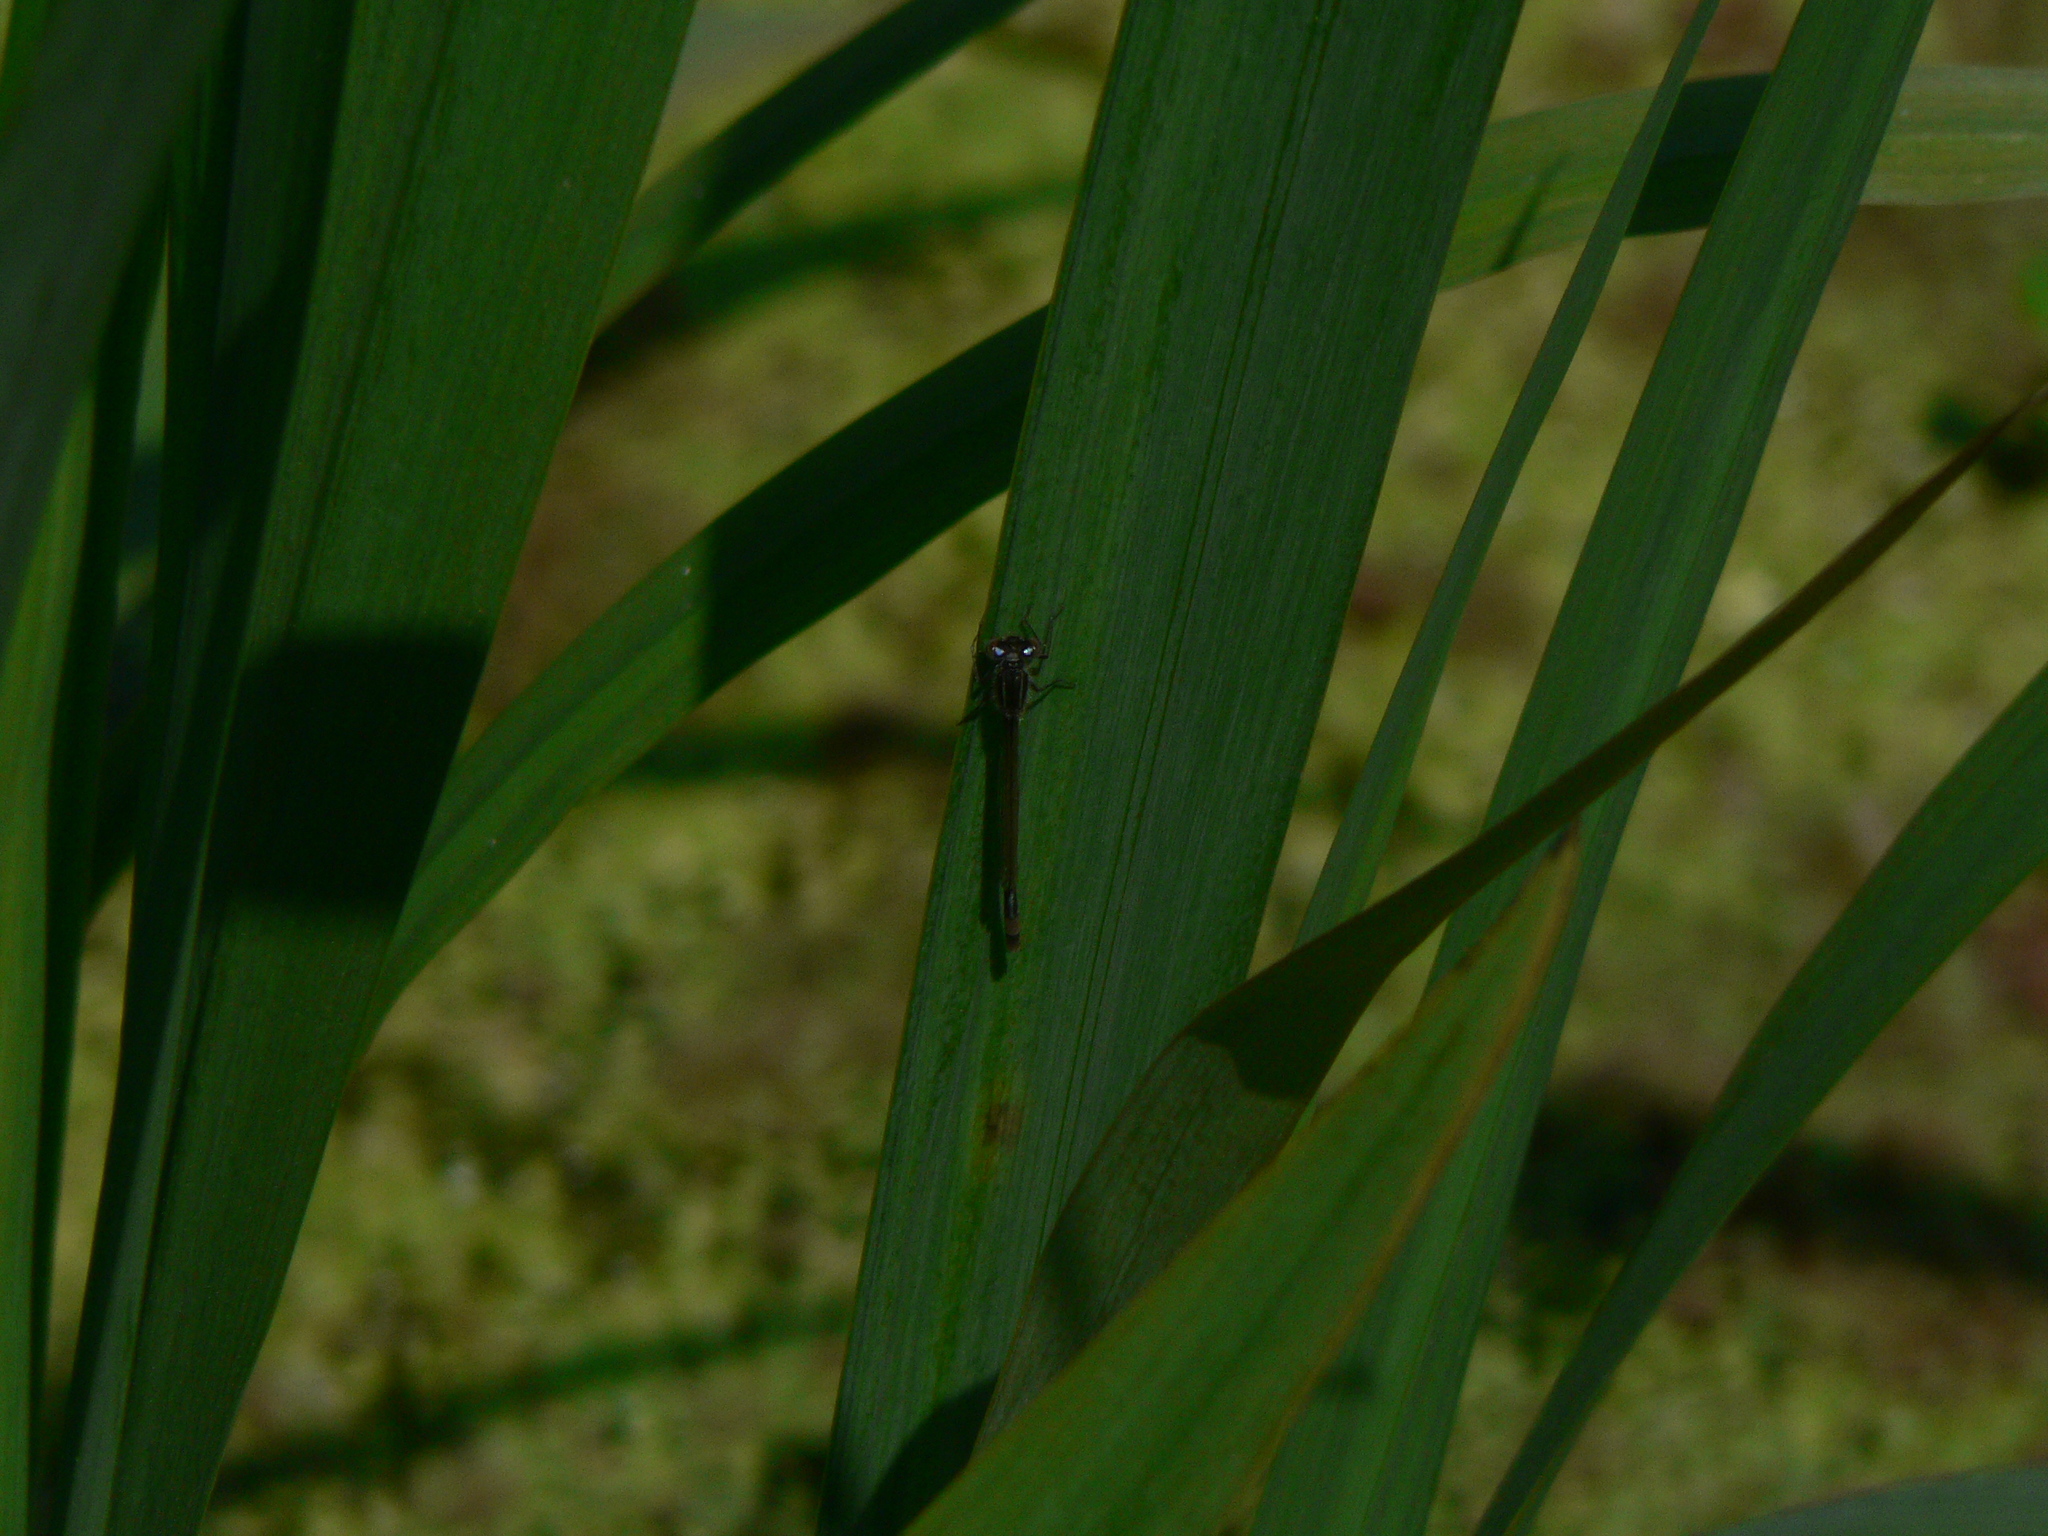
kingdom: Animalia
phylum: Arthropoda
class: Insecta
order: Odonata
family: Coenagrionidae
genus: Ischnura
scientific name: Ischnura elegans
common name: Blue-tailed damselfly
